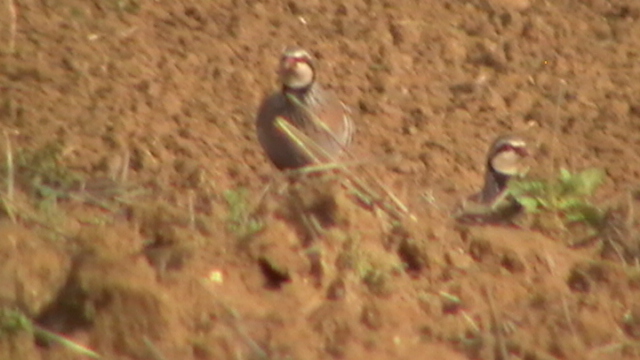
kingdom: Animalia
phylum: Chordata
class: Aves
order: Galliformes
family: Phasianidae
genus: Alectoris
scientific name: Alectoris rufa
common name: Red-legged partridge
